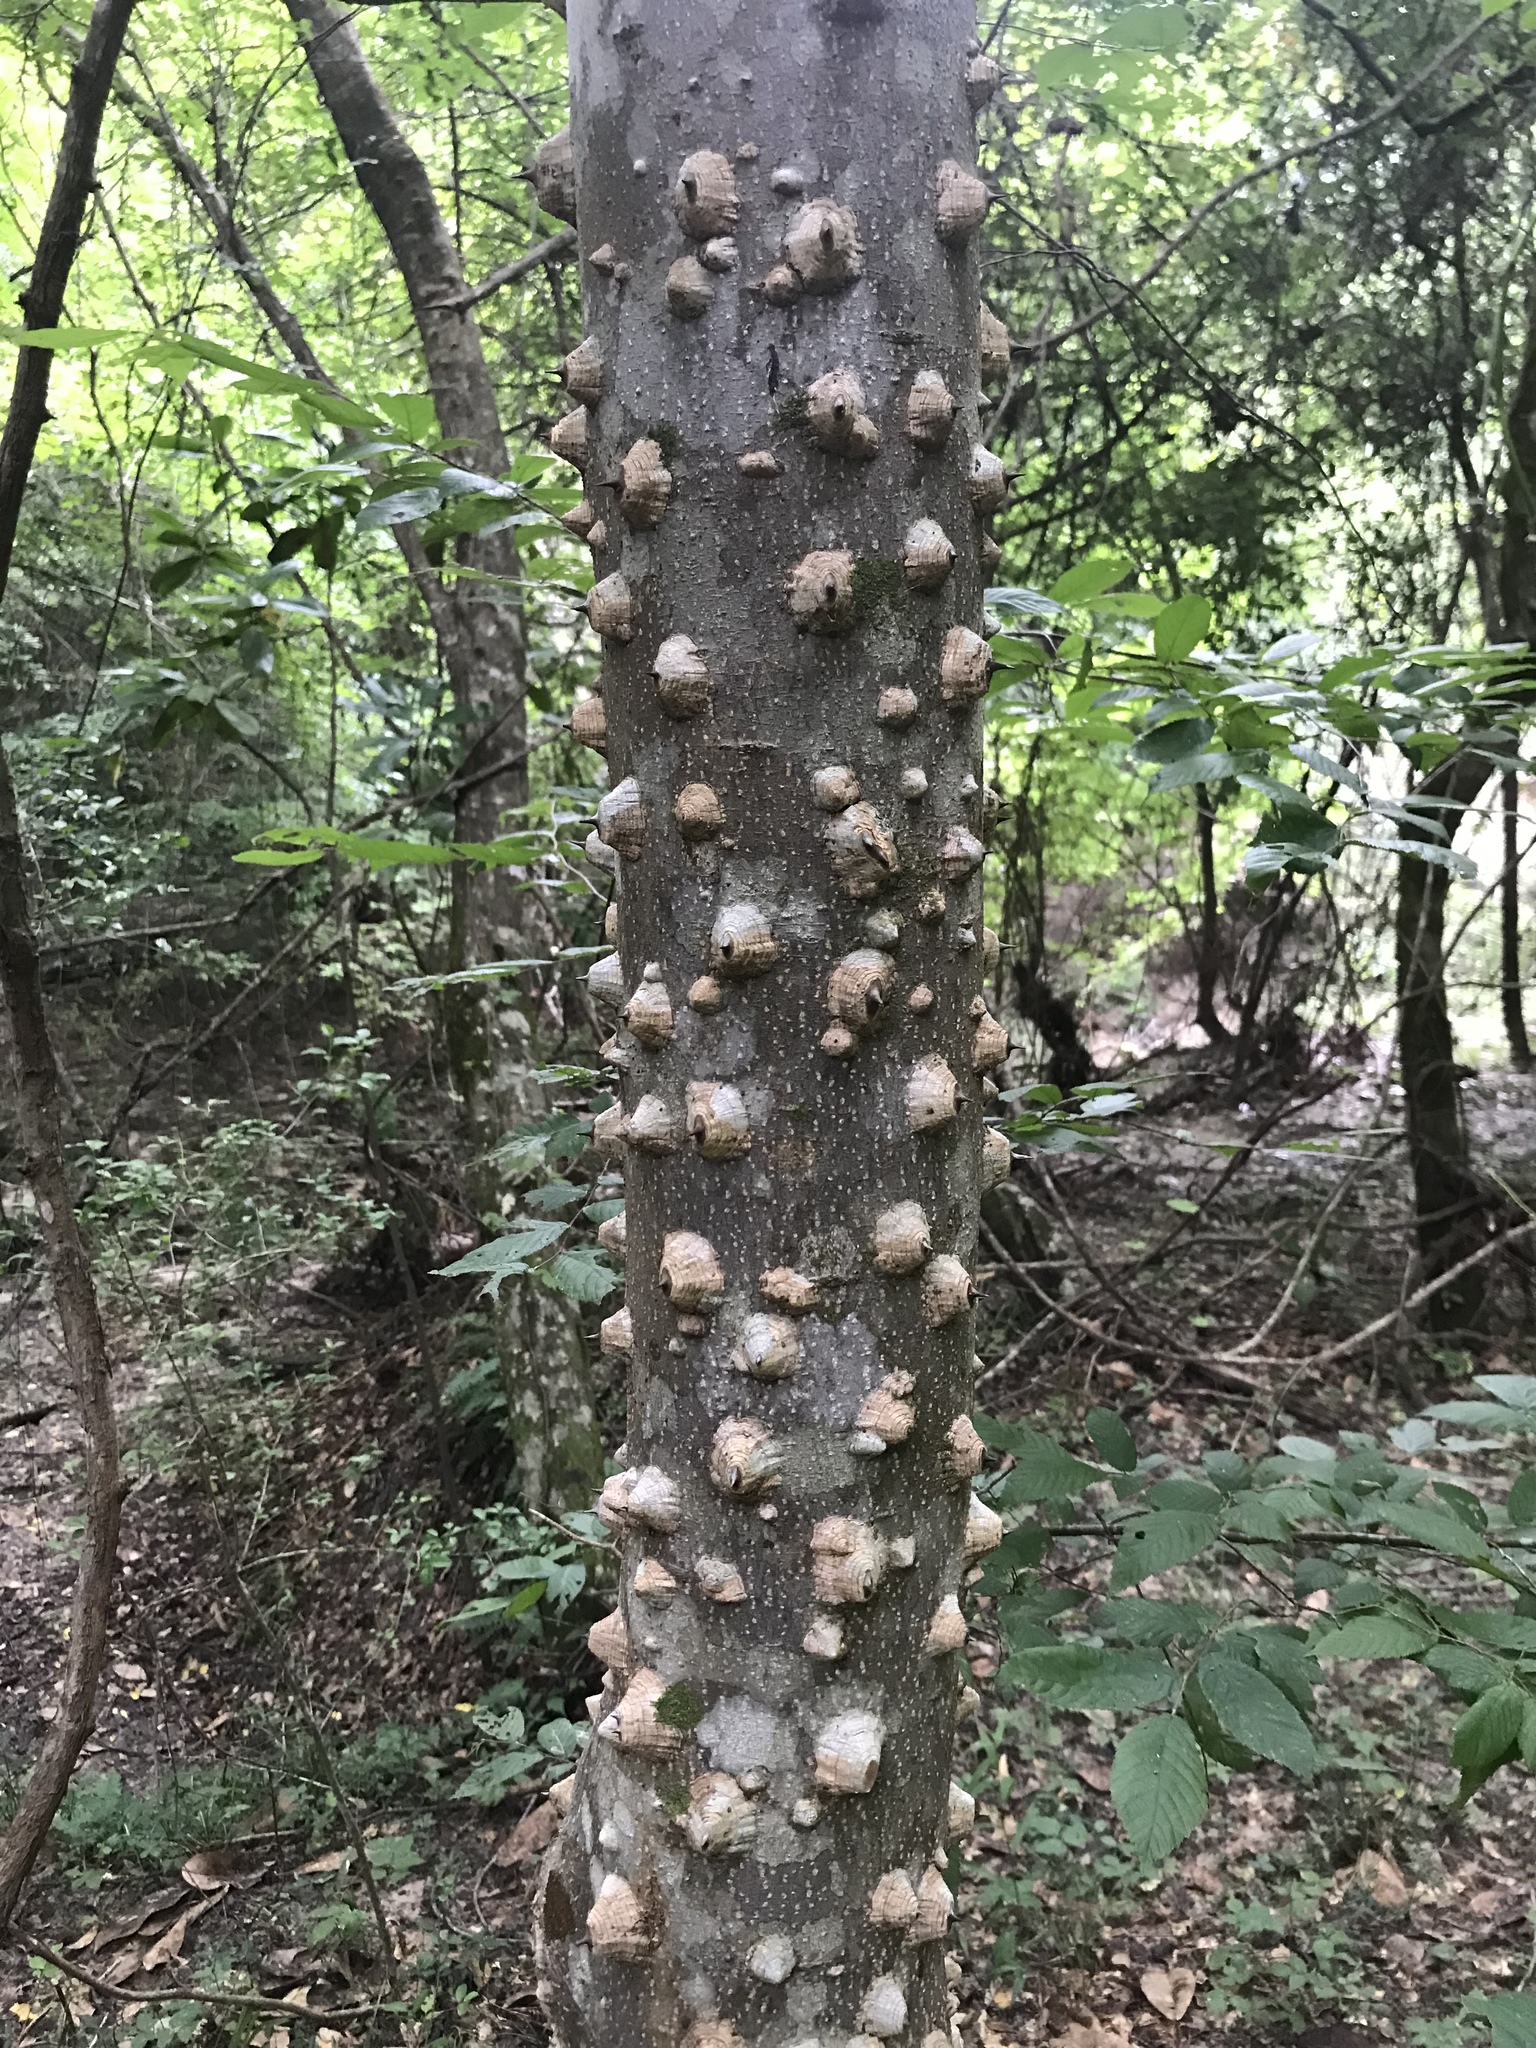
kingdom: Plantae
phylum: Tracheophyta
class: Magnoliopsida
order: Sapindales
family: Rutaceae
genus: Zanthoxylum
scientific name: Zanthoxylum clava-herculis
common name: Hercules'-club
